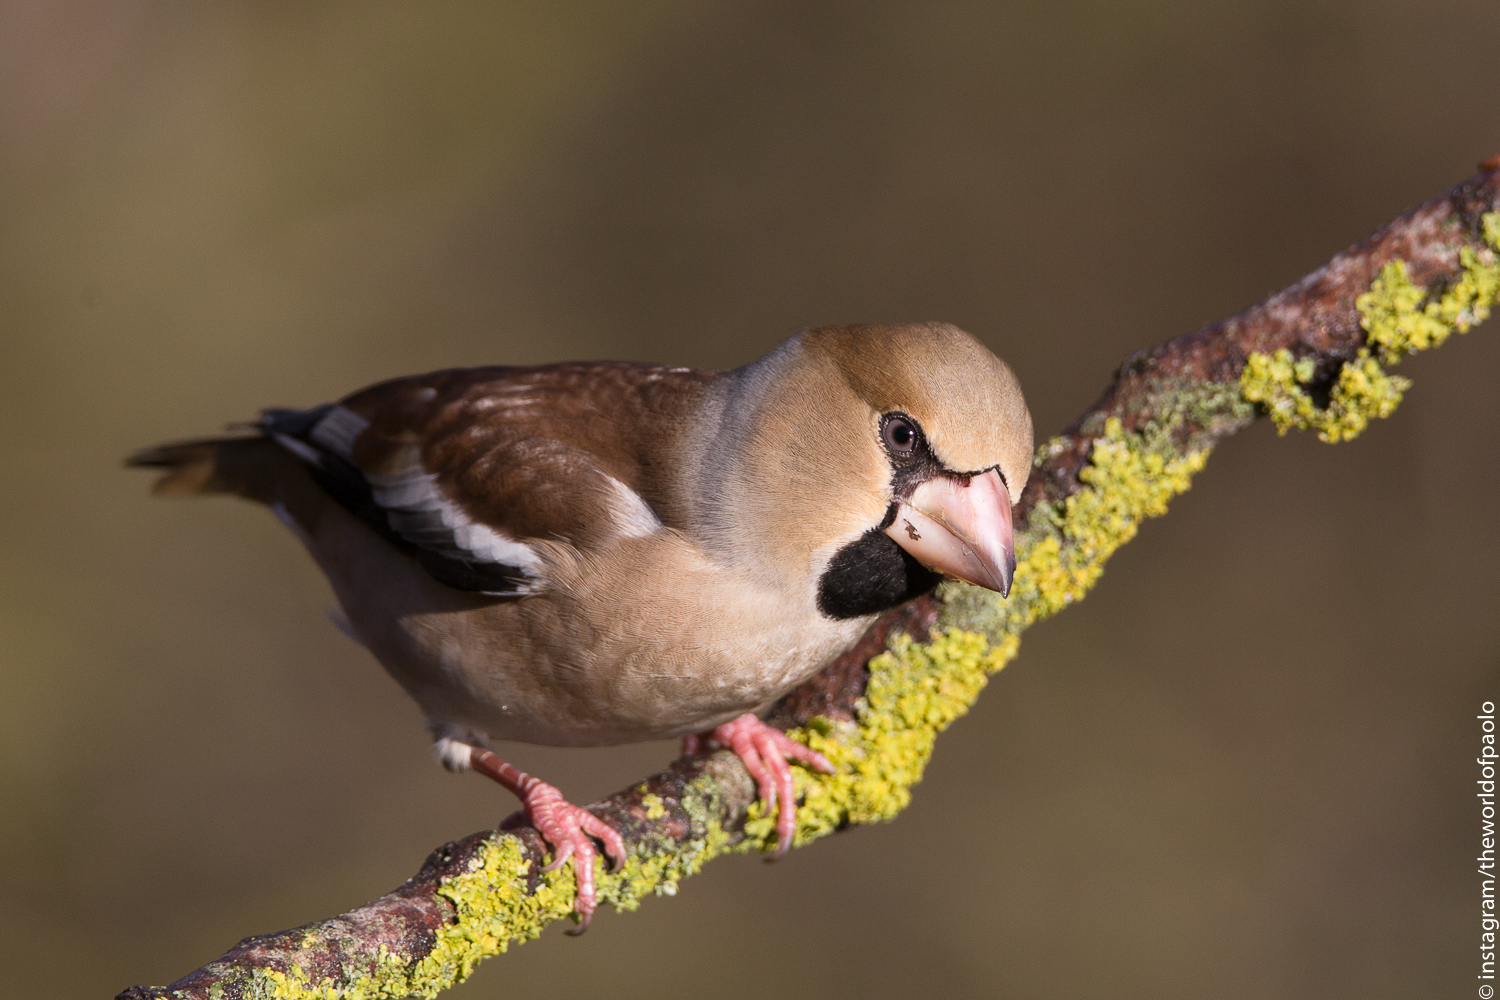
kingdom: Animalia
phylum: Chordata
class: Aves
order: Passeriformes
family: Fringillidae
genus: Coccothraustes
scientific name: Coccothraustes coccothraustes
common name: Hawfinch
